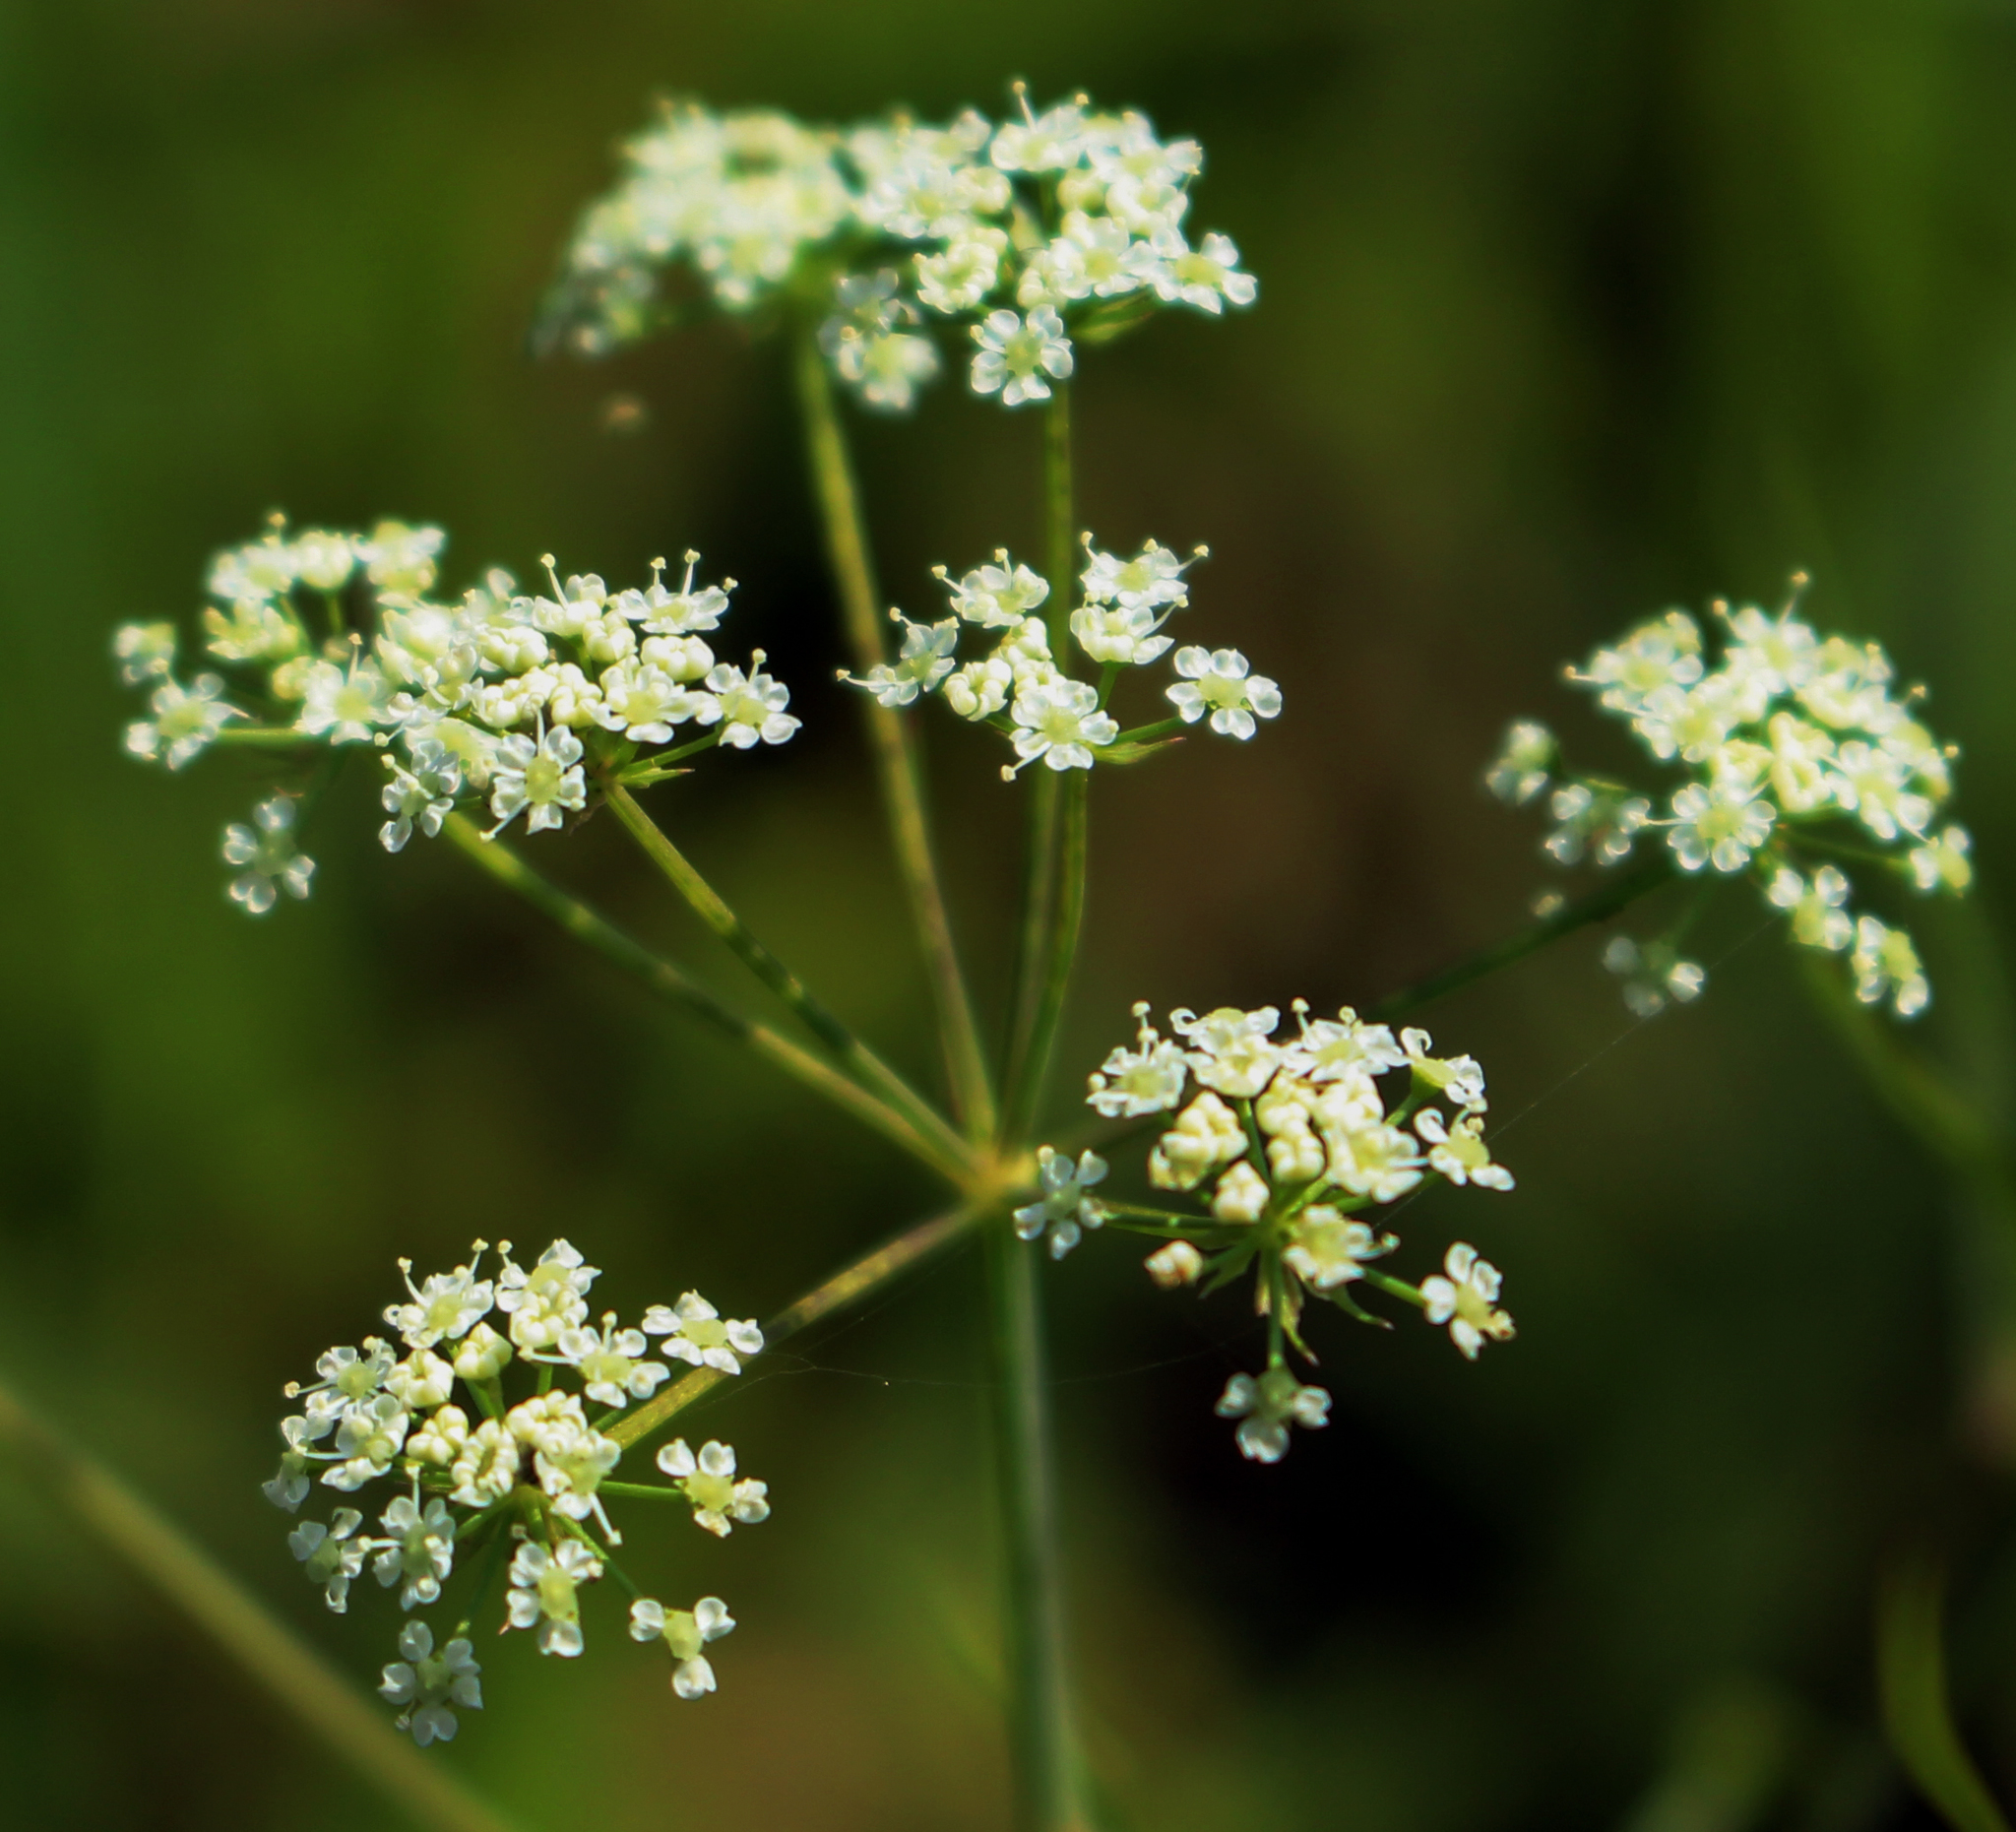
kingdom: Plantae
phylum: Tracheophyta
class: Magnoliopsida
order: Apiales
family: Apiaceae
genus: Cicuta
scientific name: Cicuta bulbifera
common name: Bulb-bearing water-hemlock
